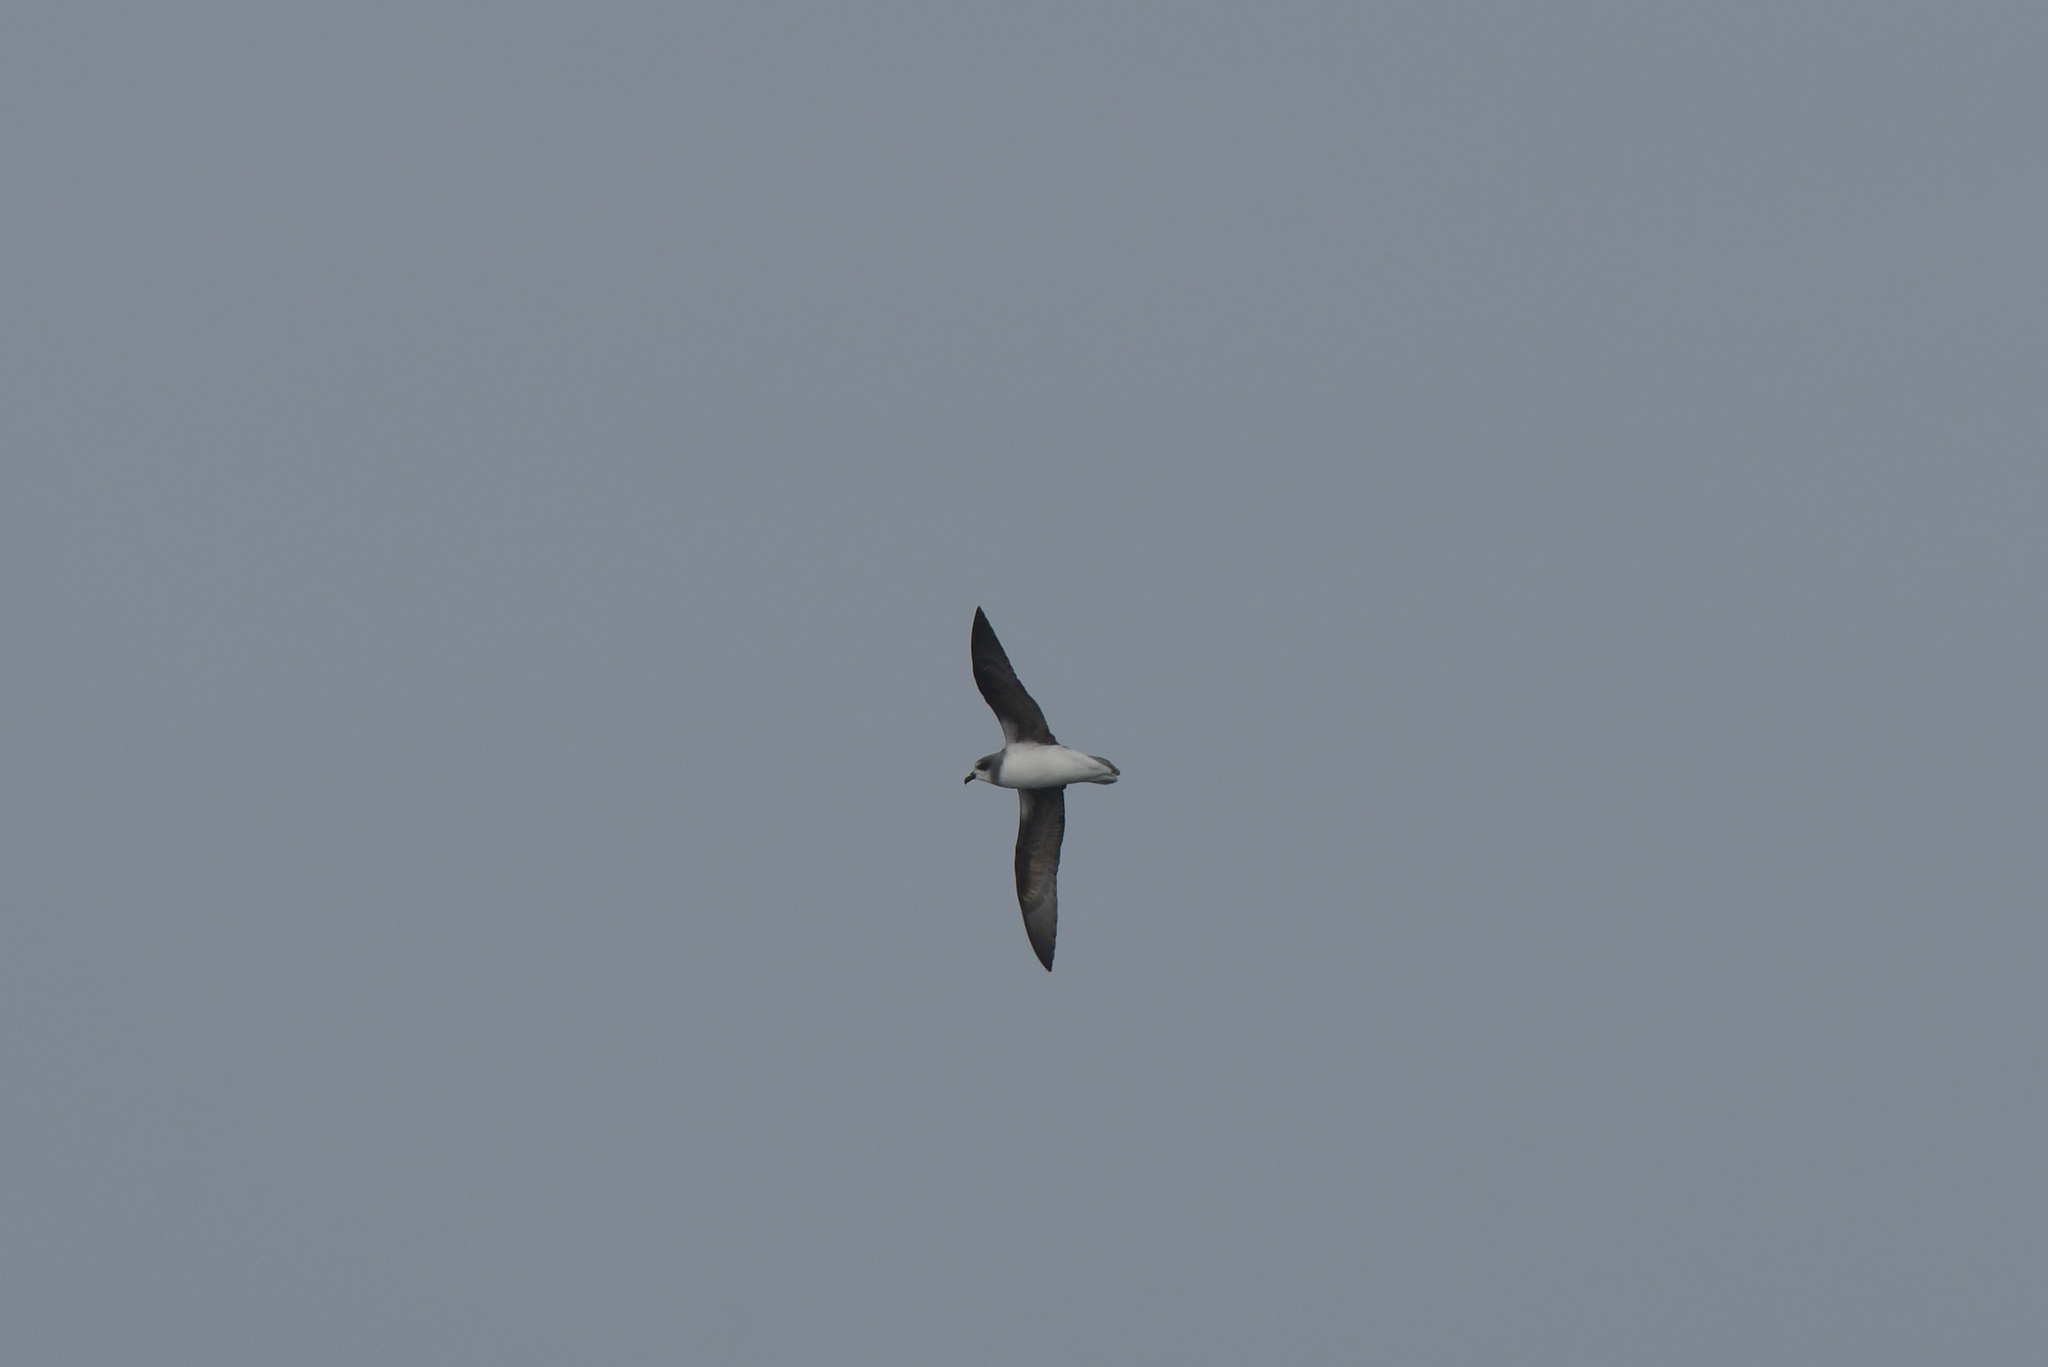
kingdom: Animalia
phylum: Chordata
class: Aves
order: Procellariiformes
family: Procellariidae
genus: Pterodroma
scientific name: Pterodroma mollis
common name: Soft-plumaged petrel
